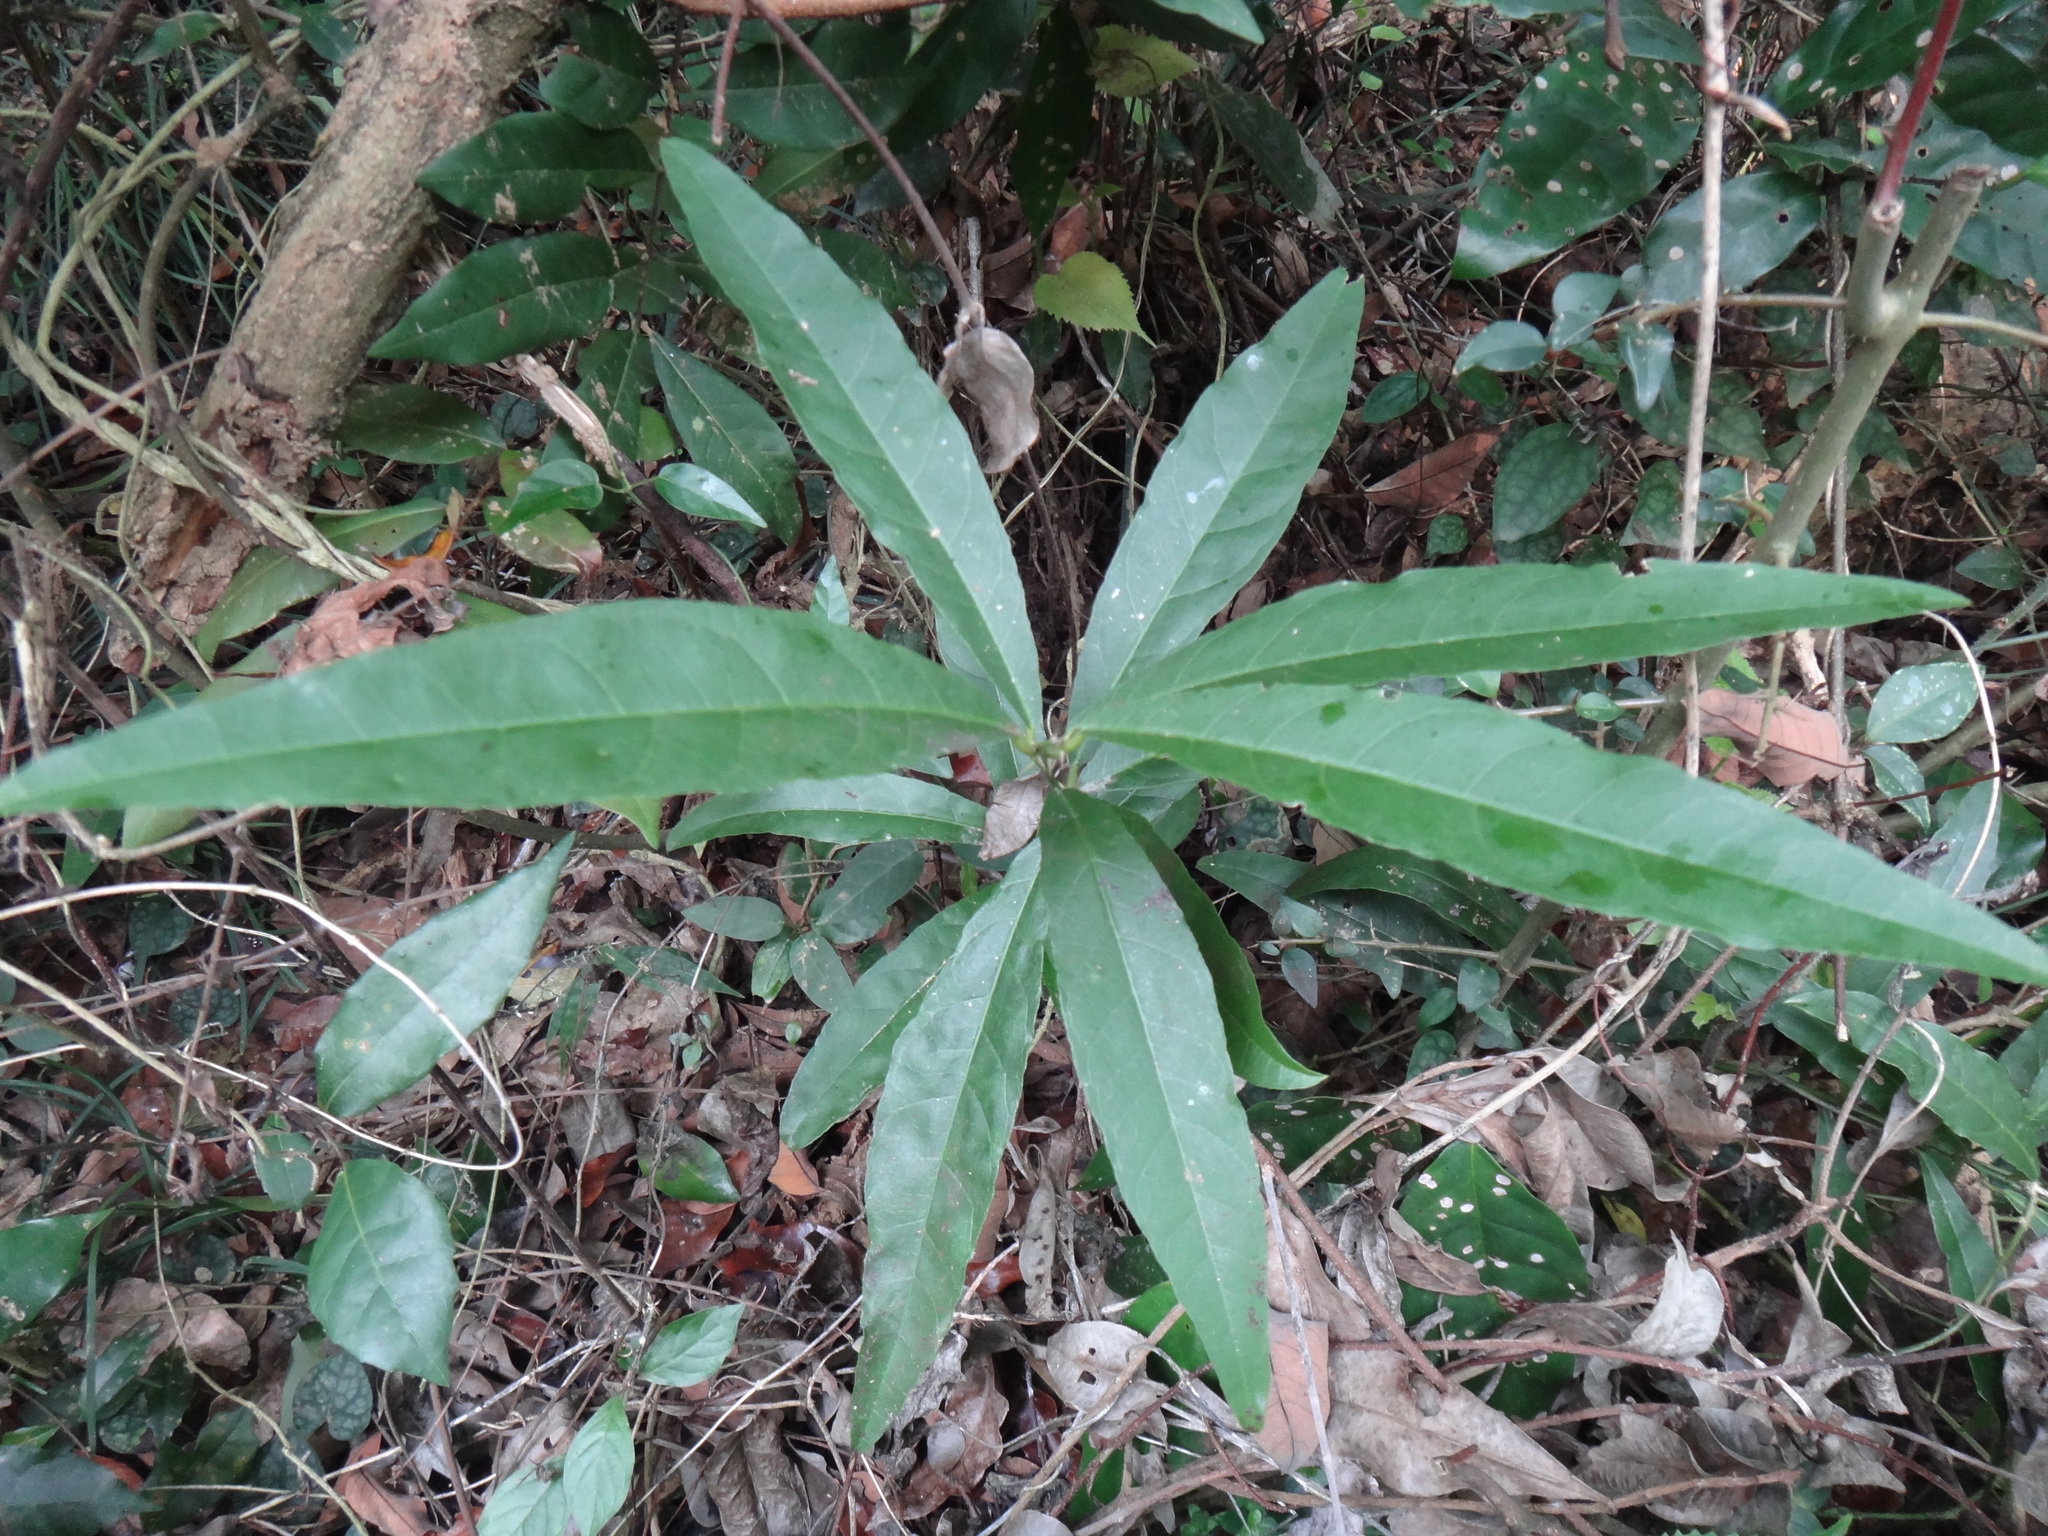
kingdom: Plantae
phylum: Tracheophyta
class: Magnoliopsida
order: Brassicales
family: Capparaceae
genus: Capparis
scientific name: Capparis henryi
